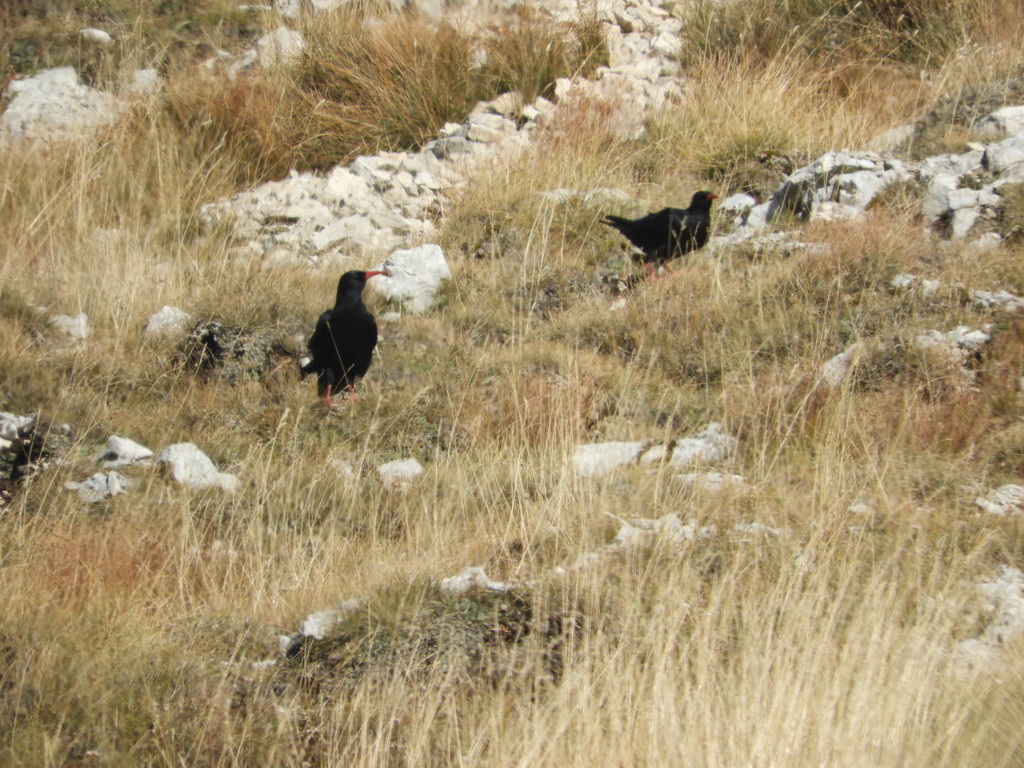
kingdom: Animalia
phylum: Chordata
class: Aves
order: Passeriformes
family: Corvidae
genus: Pyrrhocorax
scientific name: Pyrrhocorax pyrrhocorax
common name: Red-billed chough
